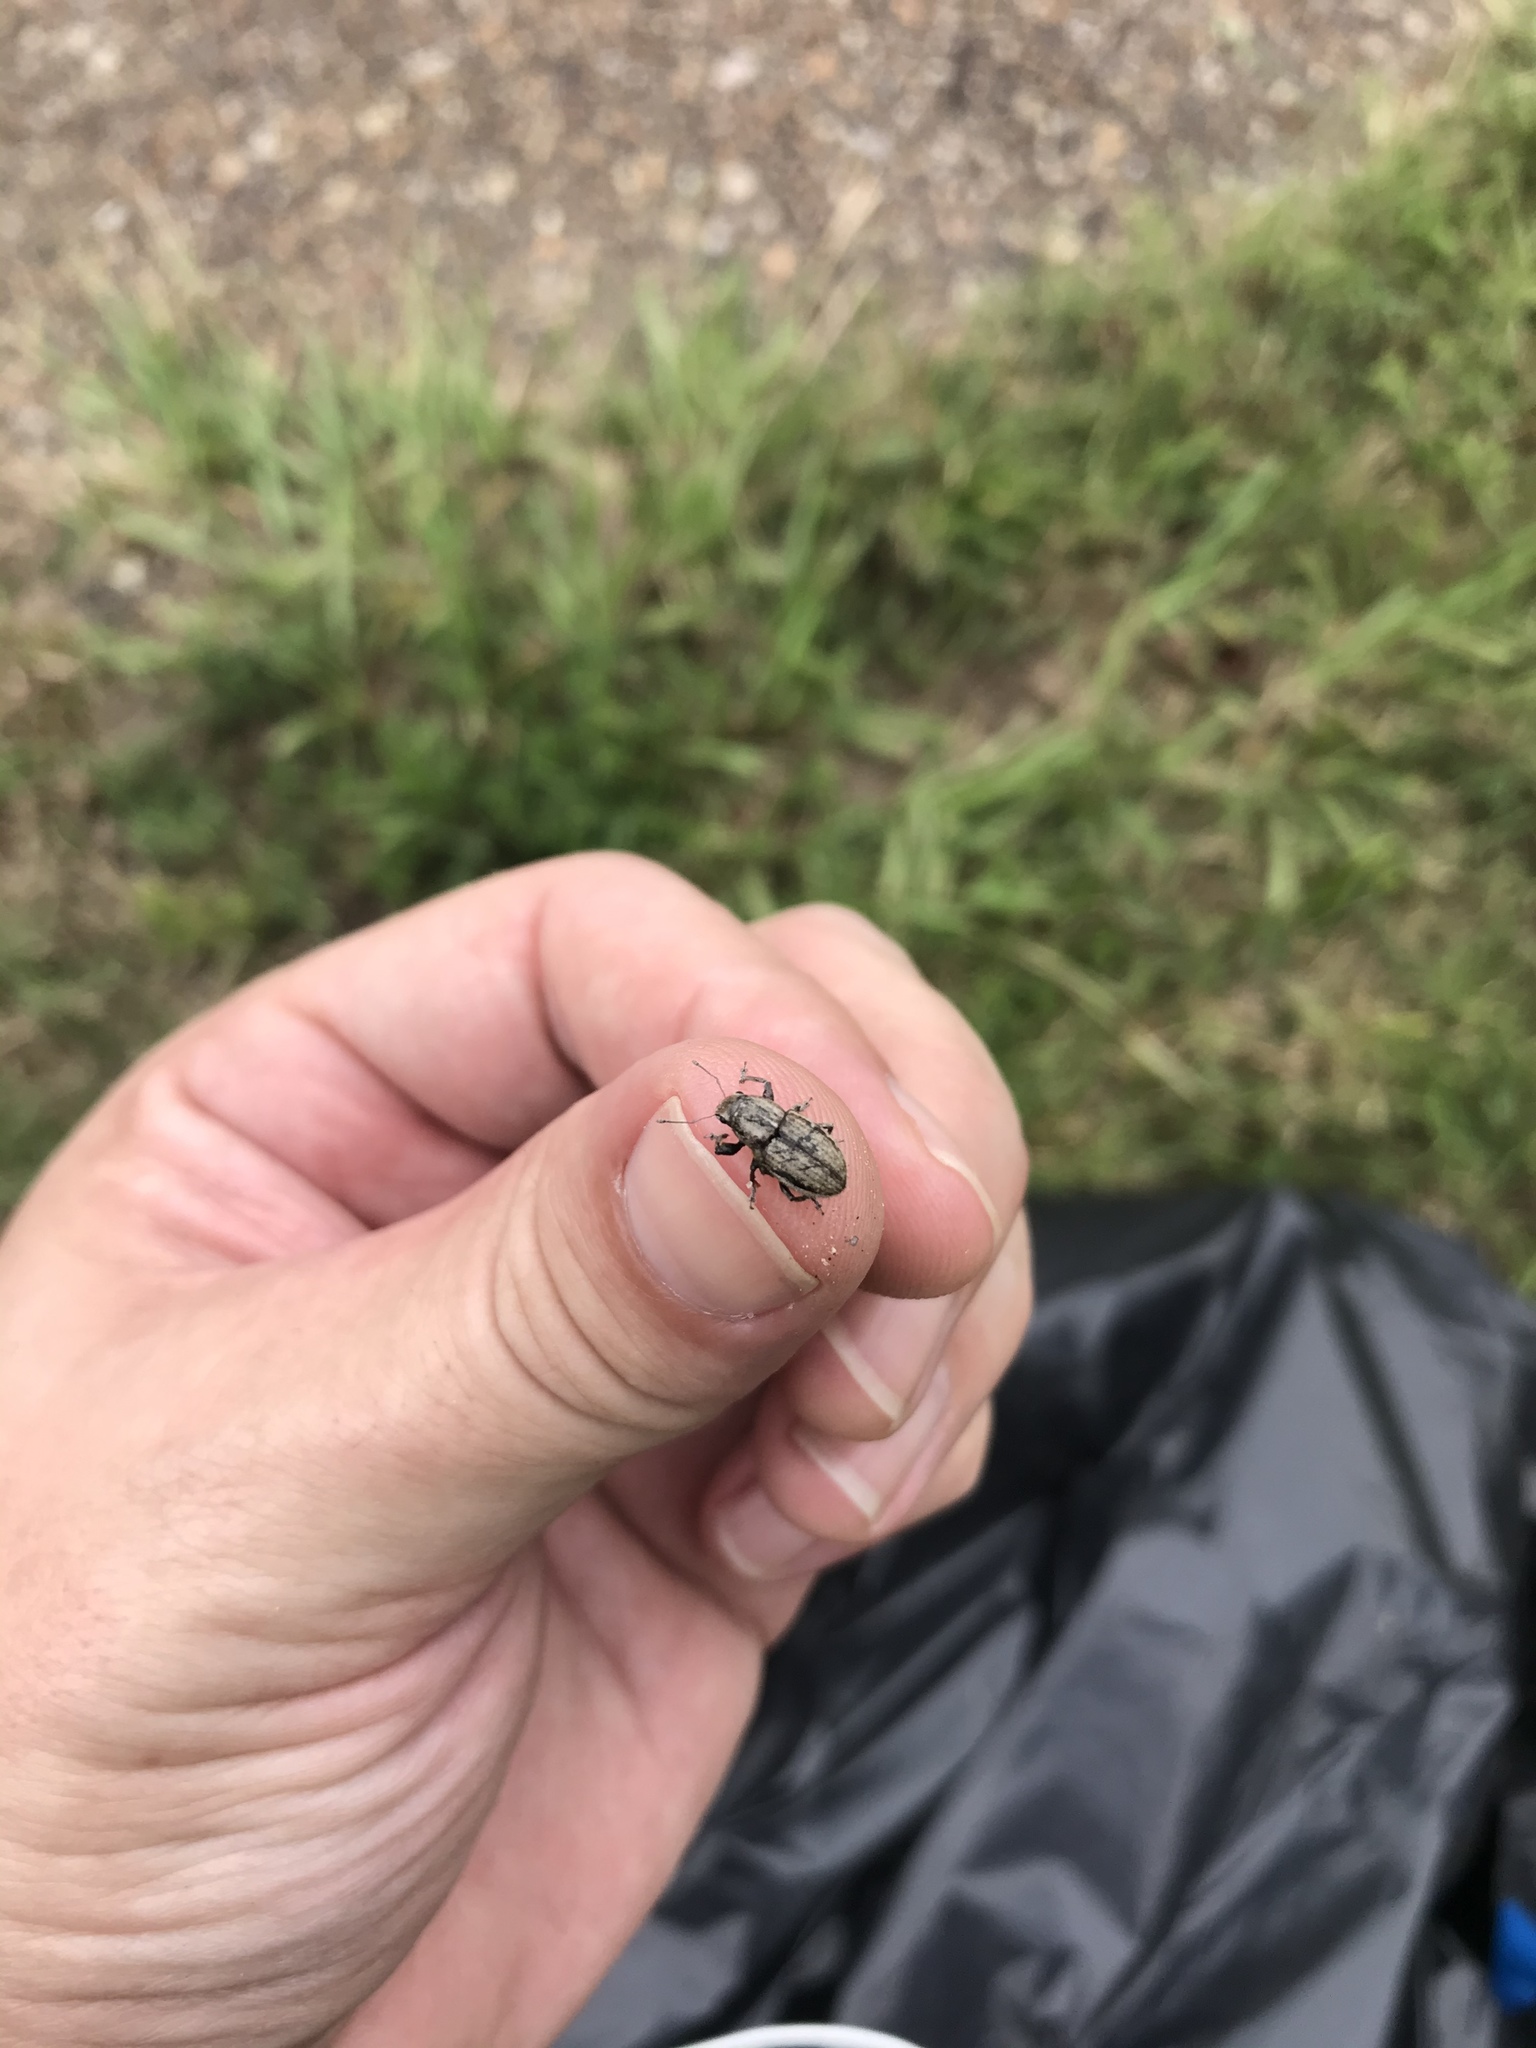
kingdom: Animalia
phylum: Arthropoda
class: Insecta
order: Coleoptera
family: Curculionidae
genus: Naupactus
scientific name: Naupactus peregrinus
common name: Whitefringed beetle
